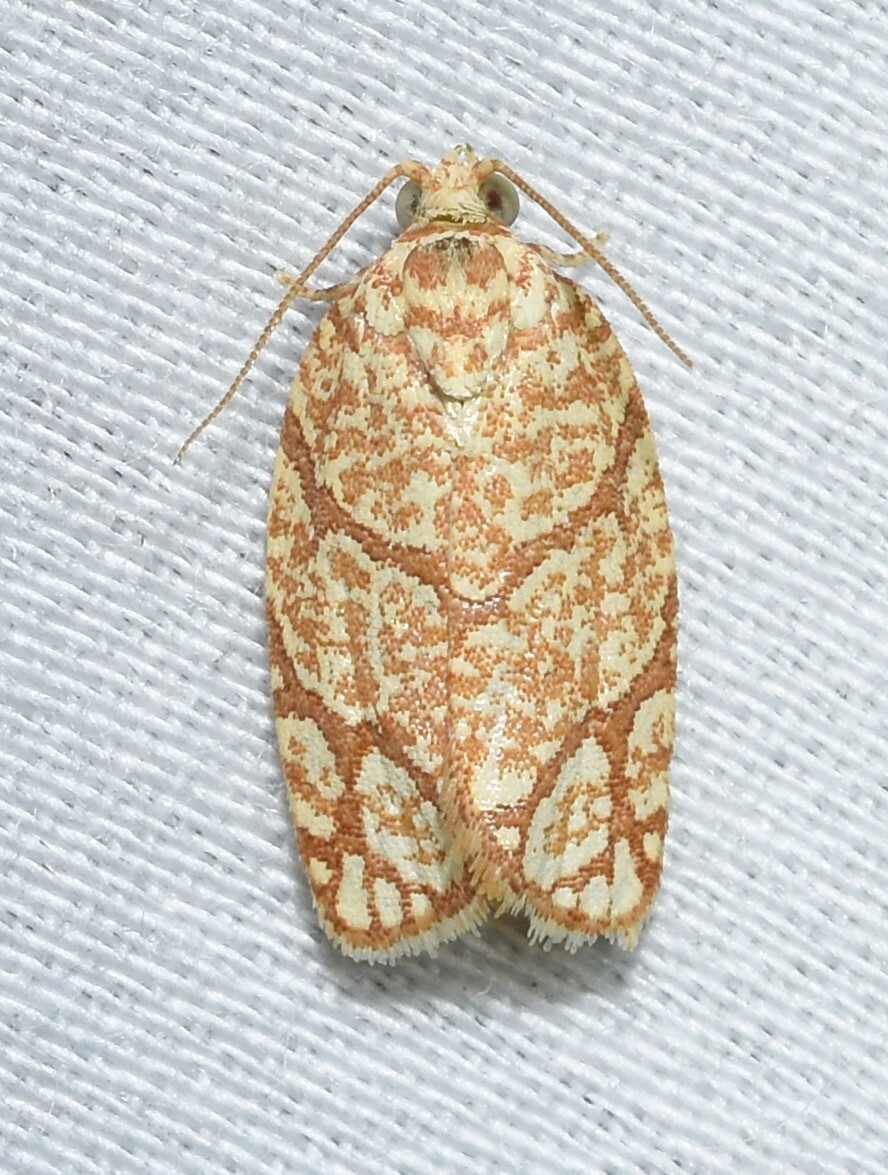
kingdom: Animalia
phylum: Arthropoda
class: Insecta
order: Lepidoptera
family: Tortricidae
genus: Argyrotaenia
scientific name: Argyrotaenia quercifoliana
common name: Yellow-winged oak leafroller moth
